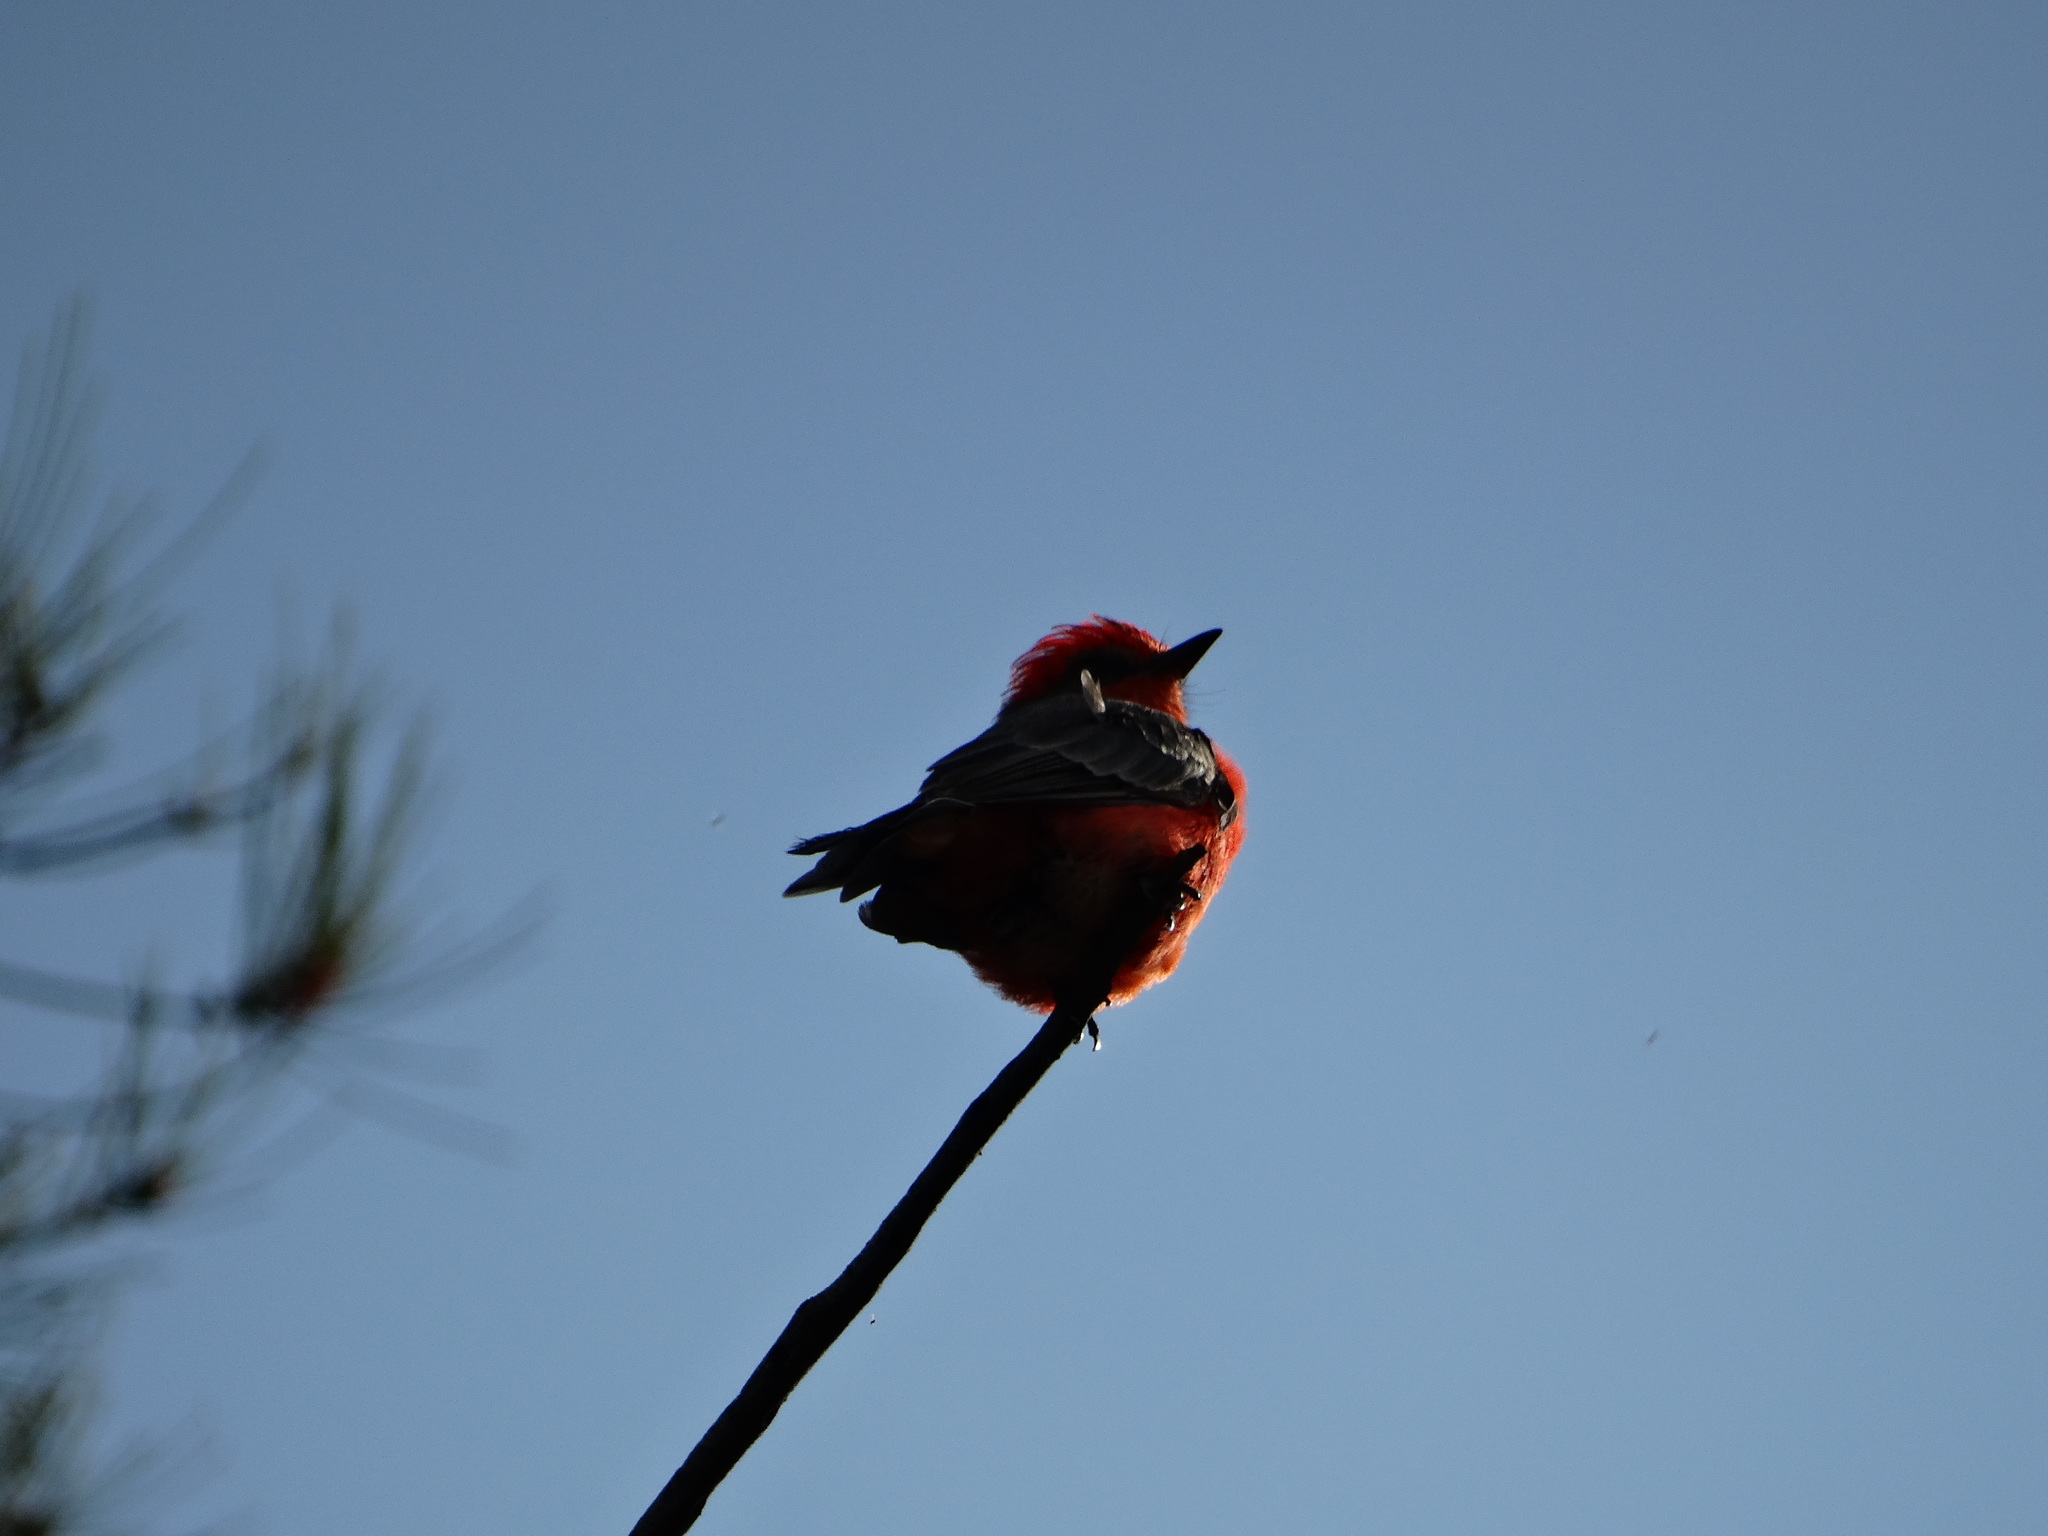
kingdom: Animalia
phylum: Chordata
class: Aves
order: Passeriformes
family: Tyrannidae
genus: Pyrocephalus
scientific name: Pyrocephalus rubinus
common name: Vermilion flycatcher
